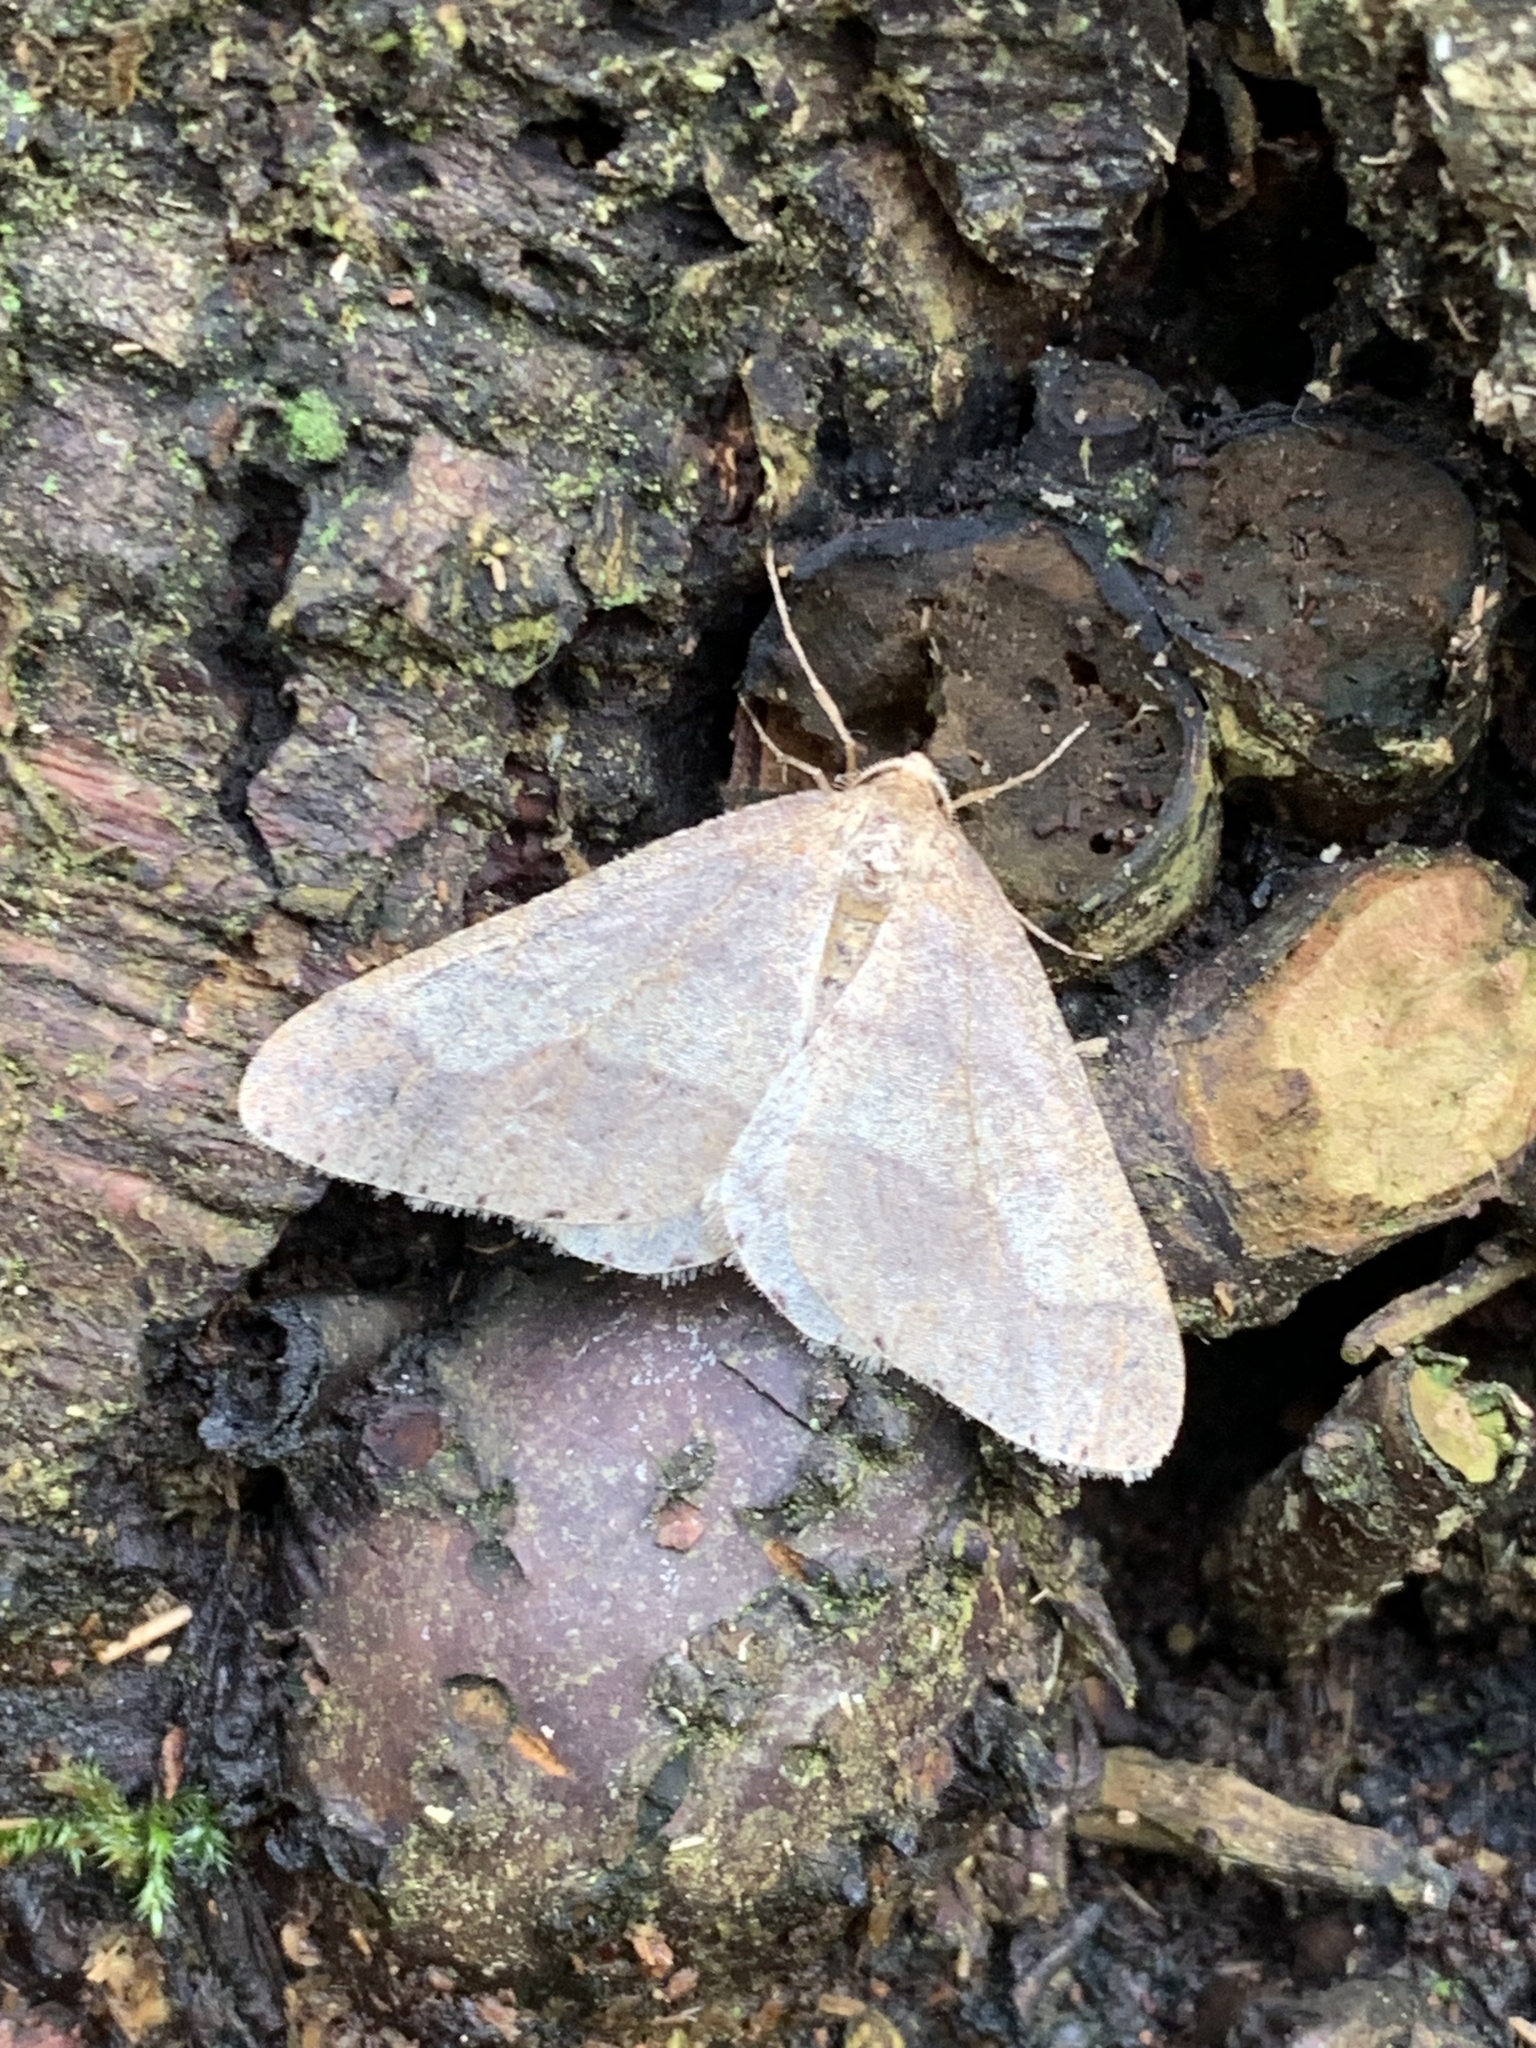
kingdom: Animalia
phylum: Arthropoda
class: Insecta
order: Lepidoptera
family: Geometridae
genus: Agriopis
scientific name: Agriopis marginaria
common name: Dotted border
